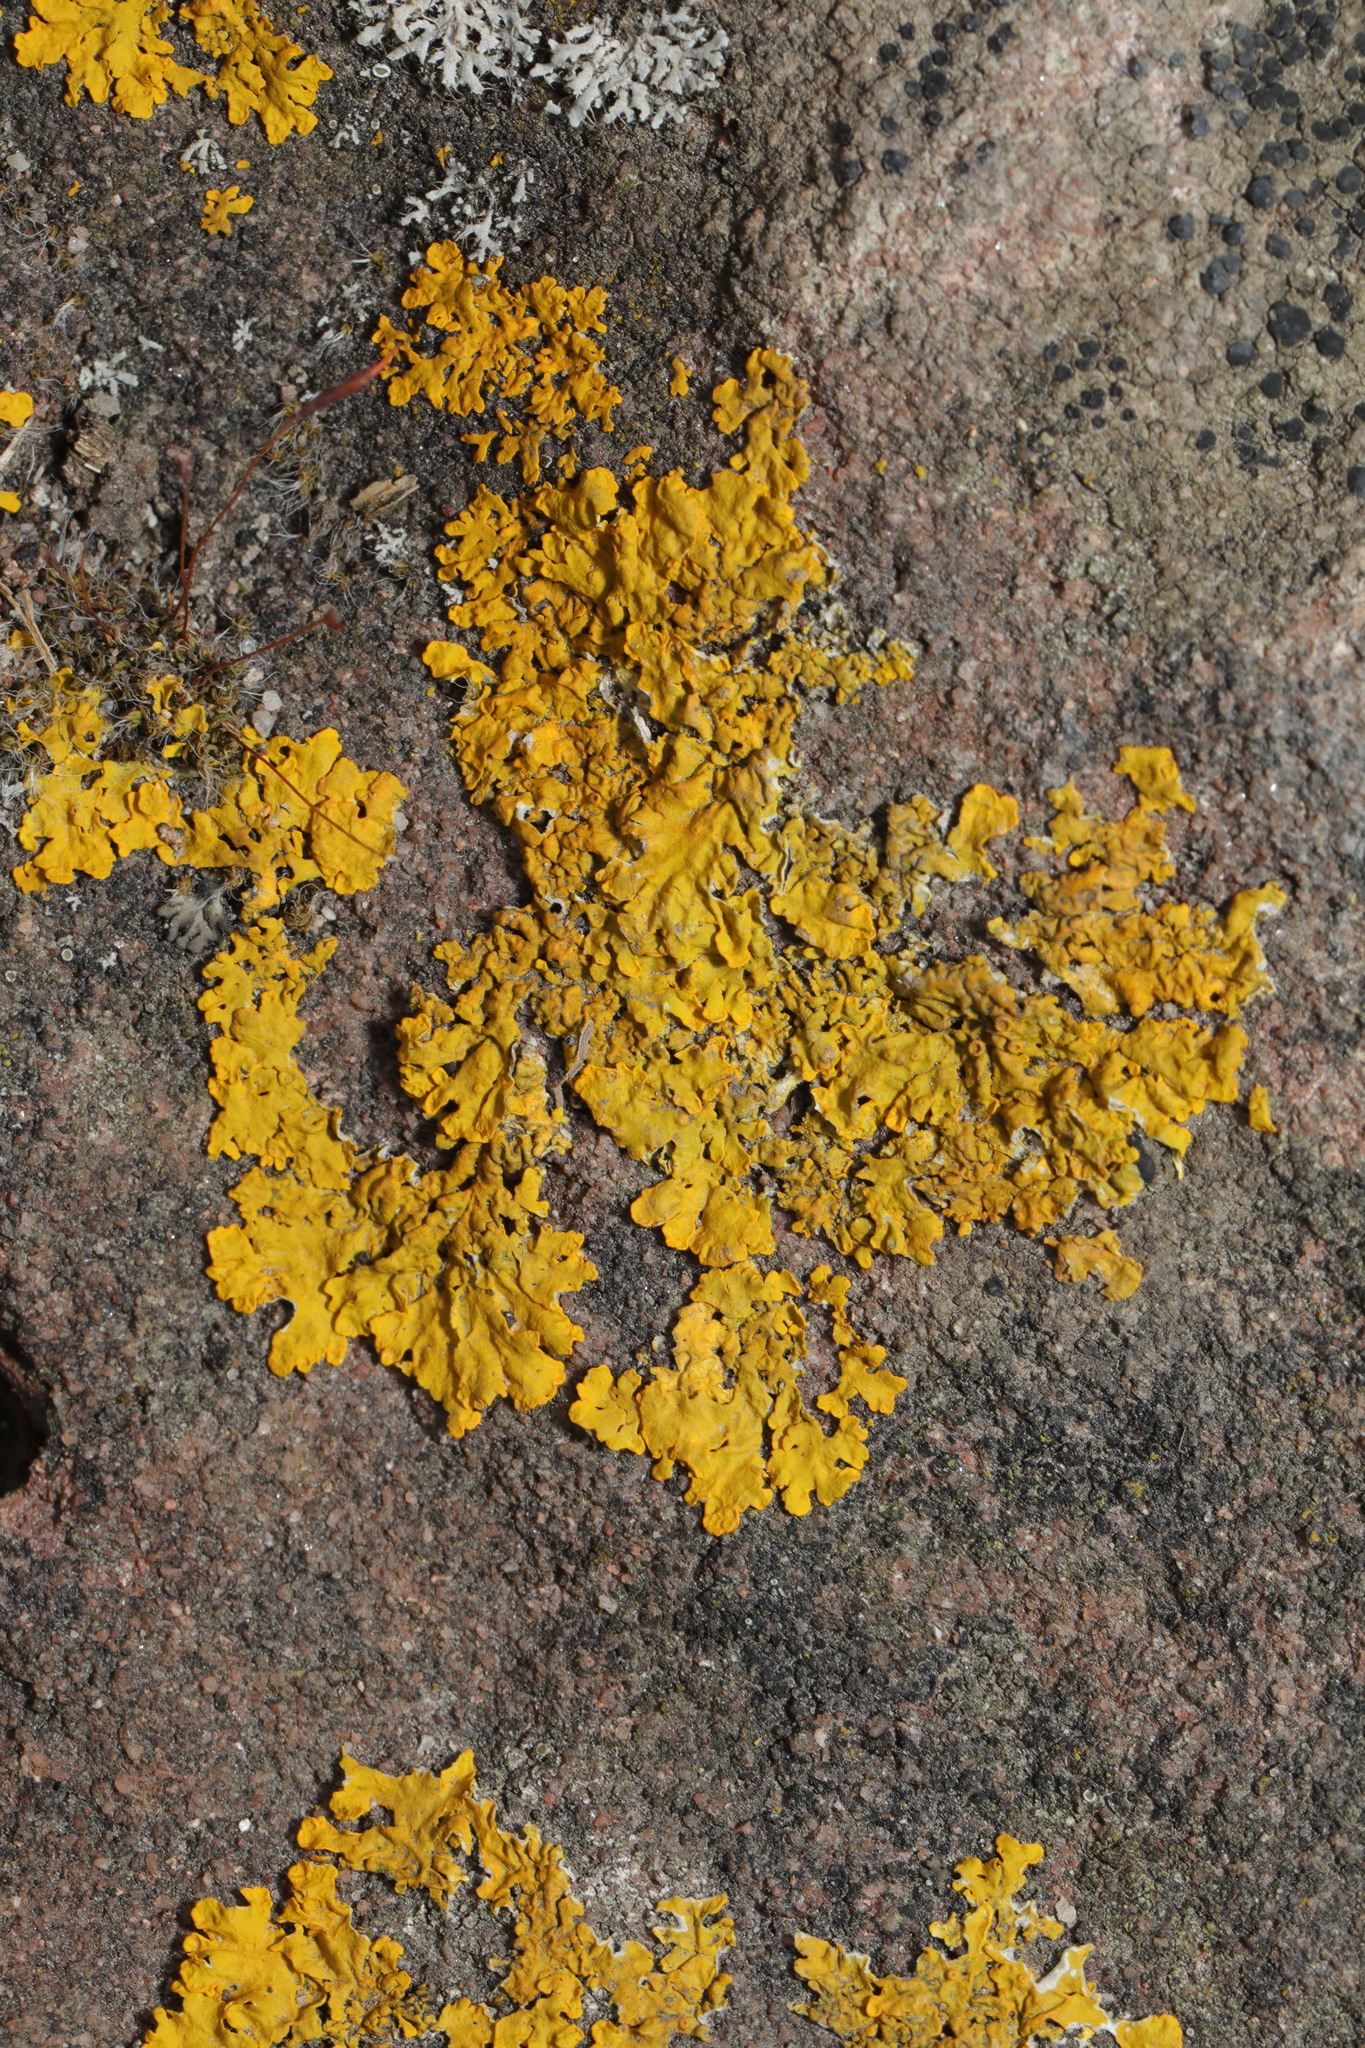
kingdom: Fungi
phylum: Ascomycota
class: Lecanoromycetes
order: Teloschistales
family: Teloschistaceae
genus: Xanthoria
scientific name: Xanthoria parietina
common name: Common orange lichen
